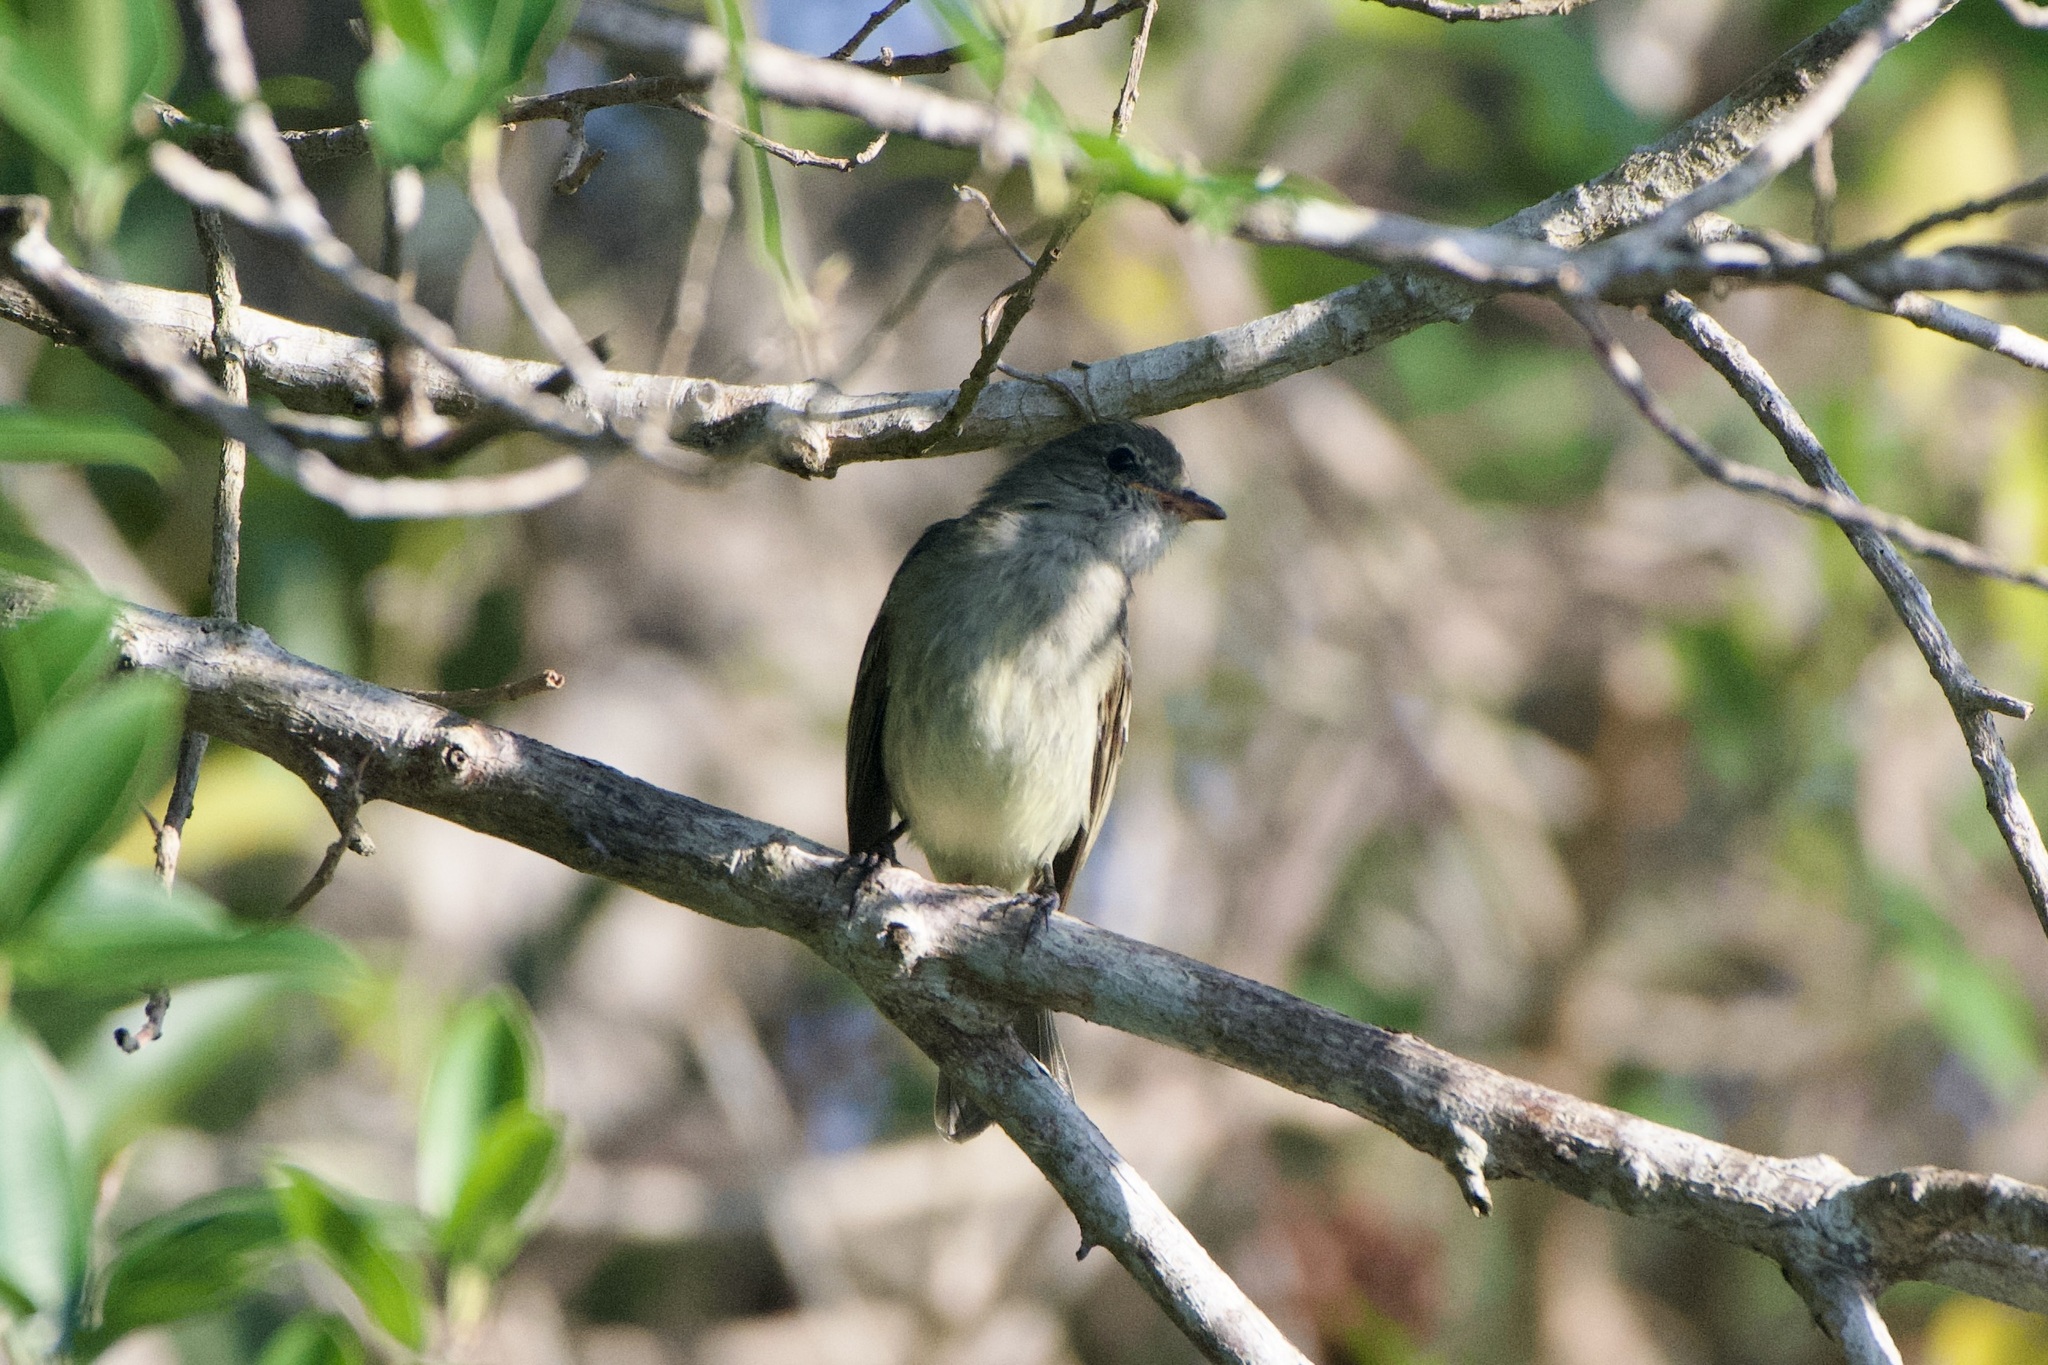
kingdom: Animalia
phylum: Chordata
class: Aves
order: Passeriformes
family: Tyrannidae
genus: Elaenia
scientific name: Elaenia martinica
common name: Caribbean elaenia
